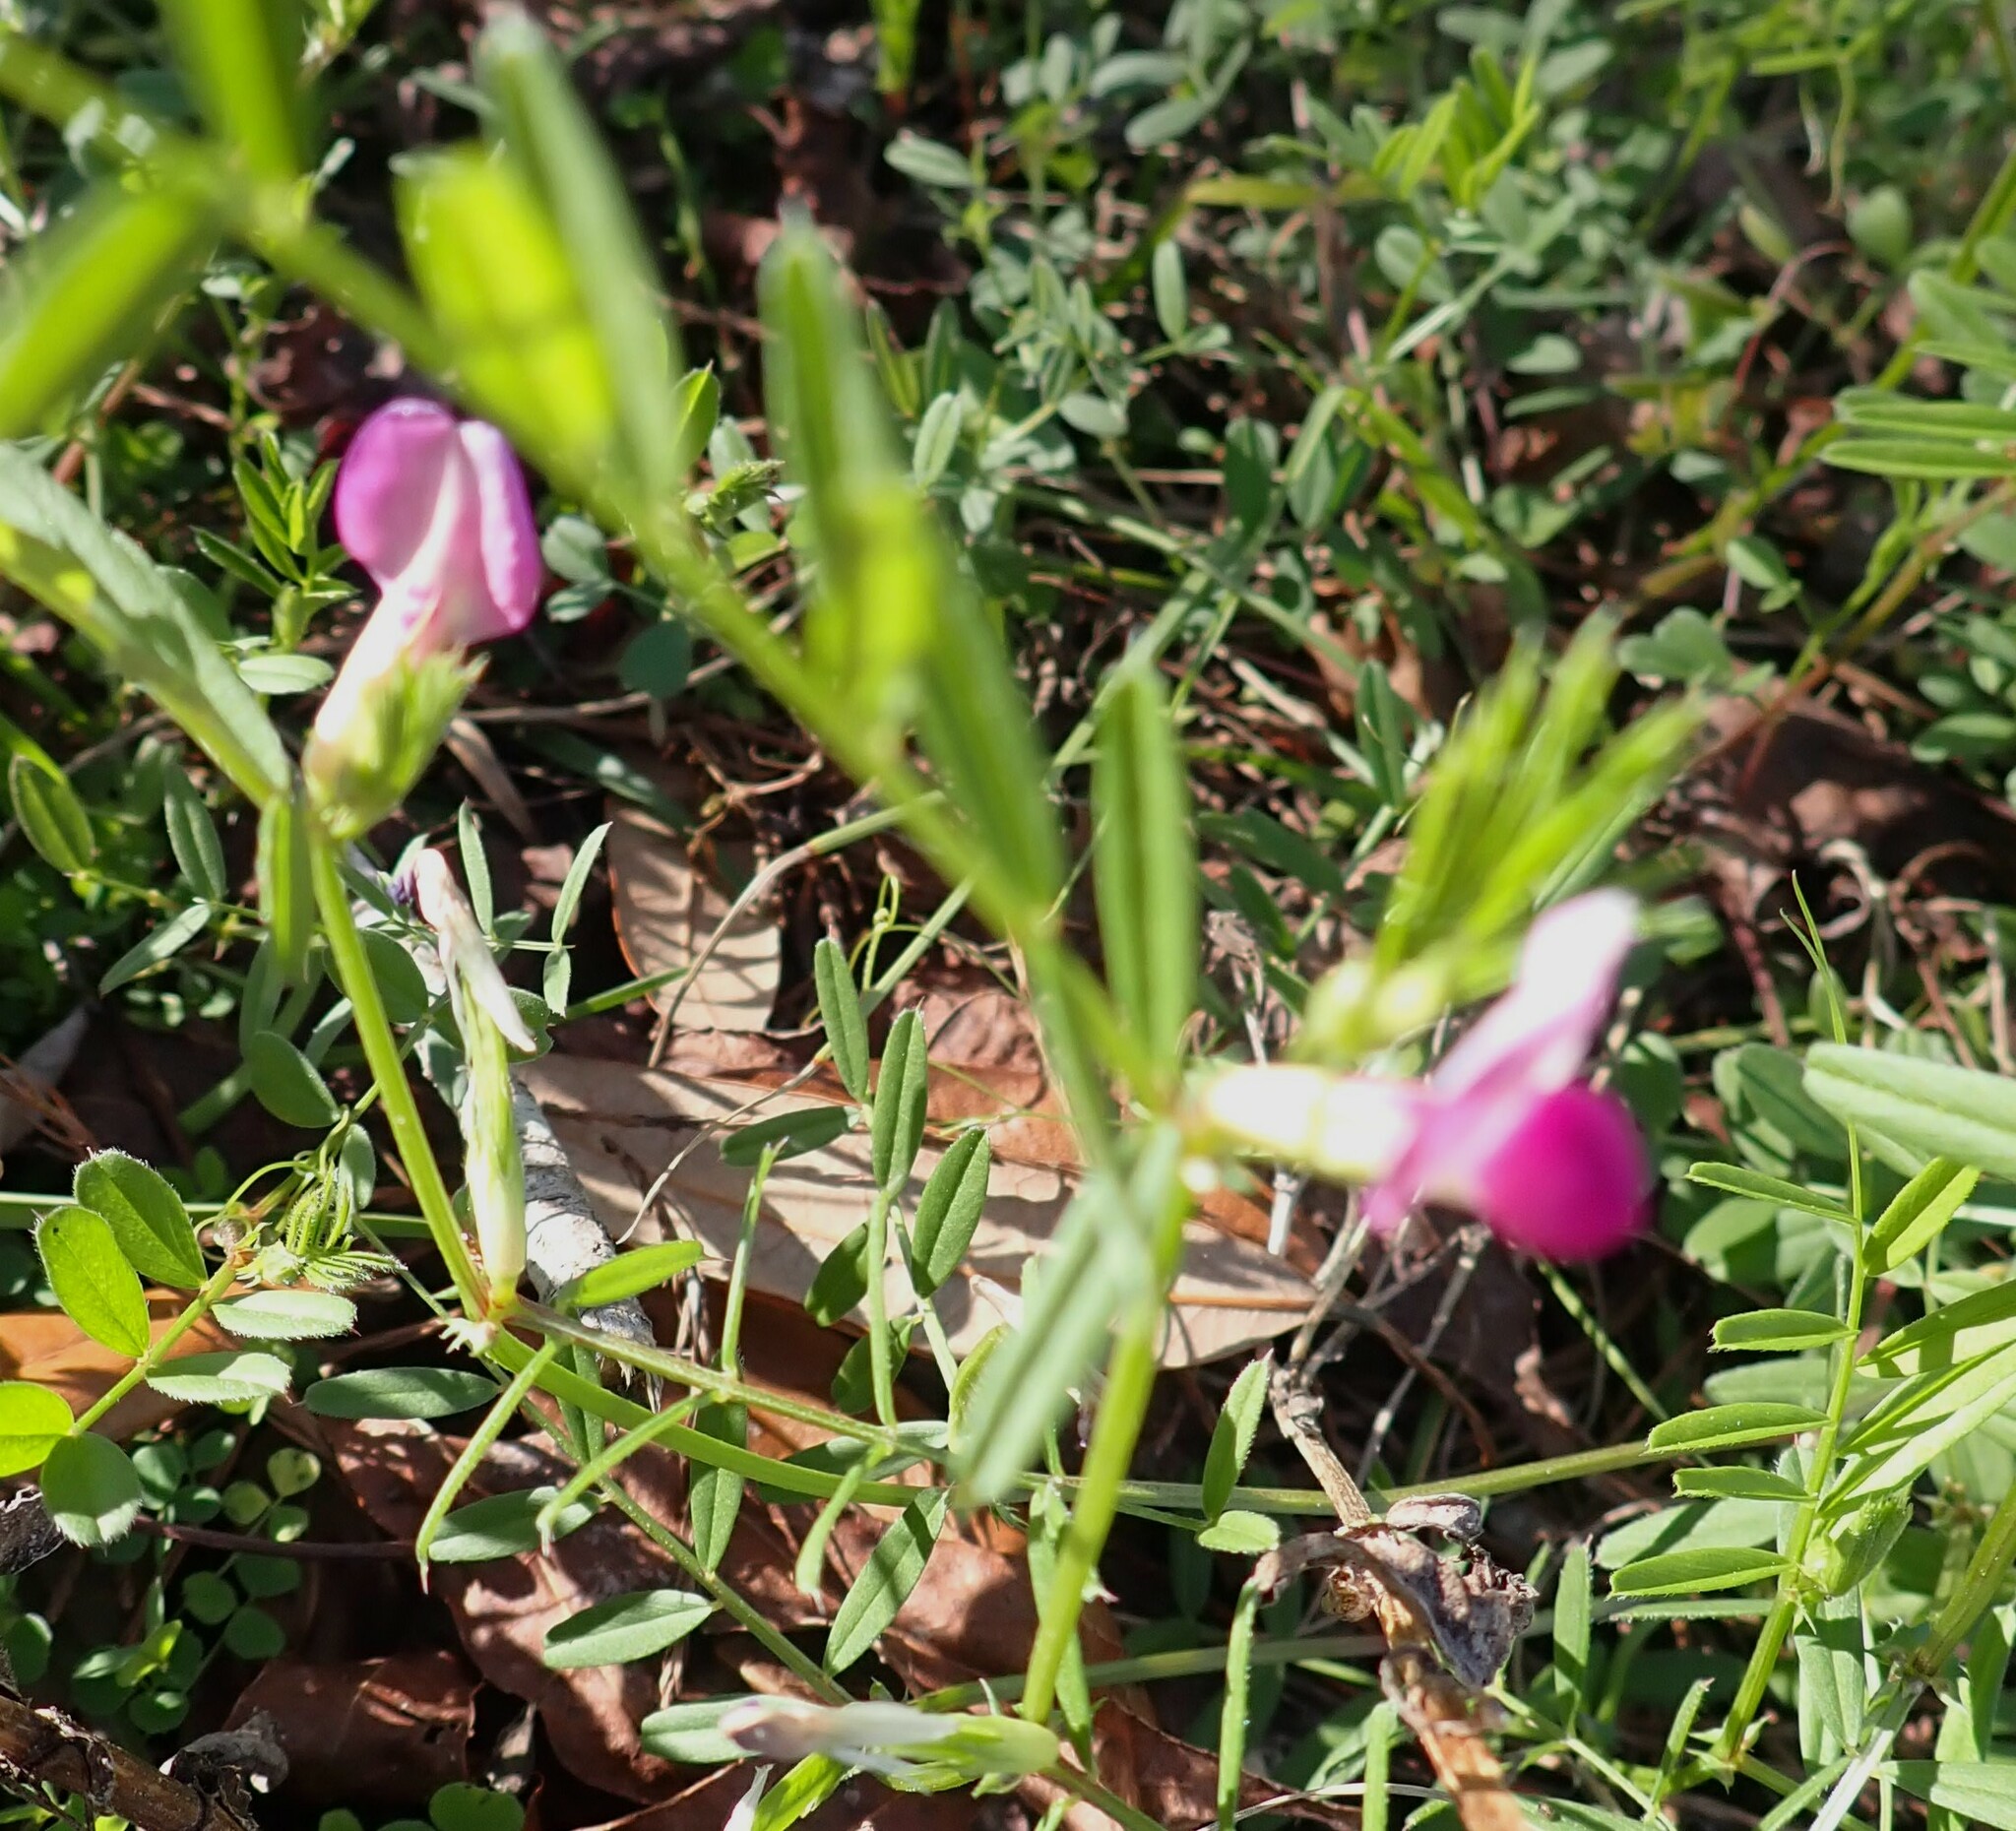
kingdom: Plantae
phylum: Tracheophyta
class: Magnoliopsida
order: Fabales
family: Fabaceae
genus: Vicia
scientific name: Vicia sativa
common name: Garden vetch
